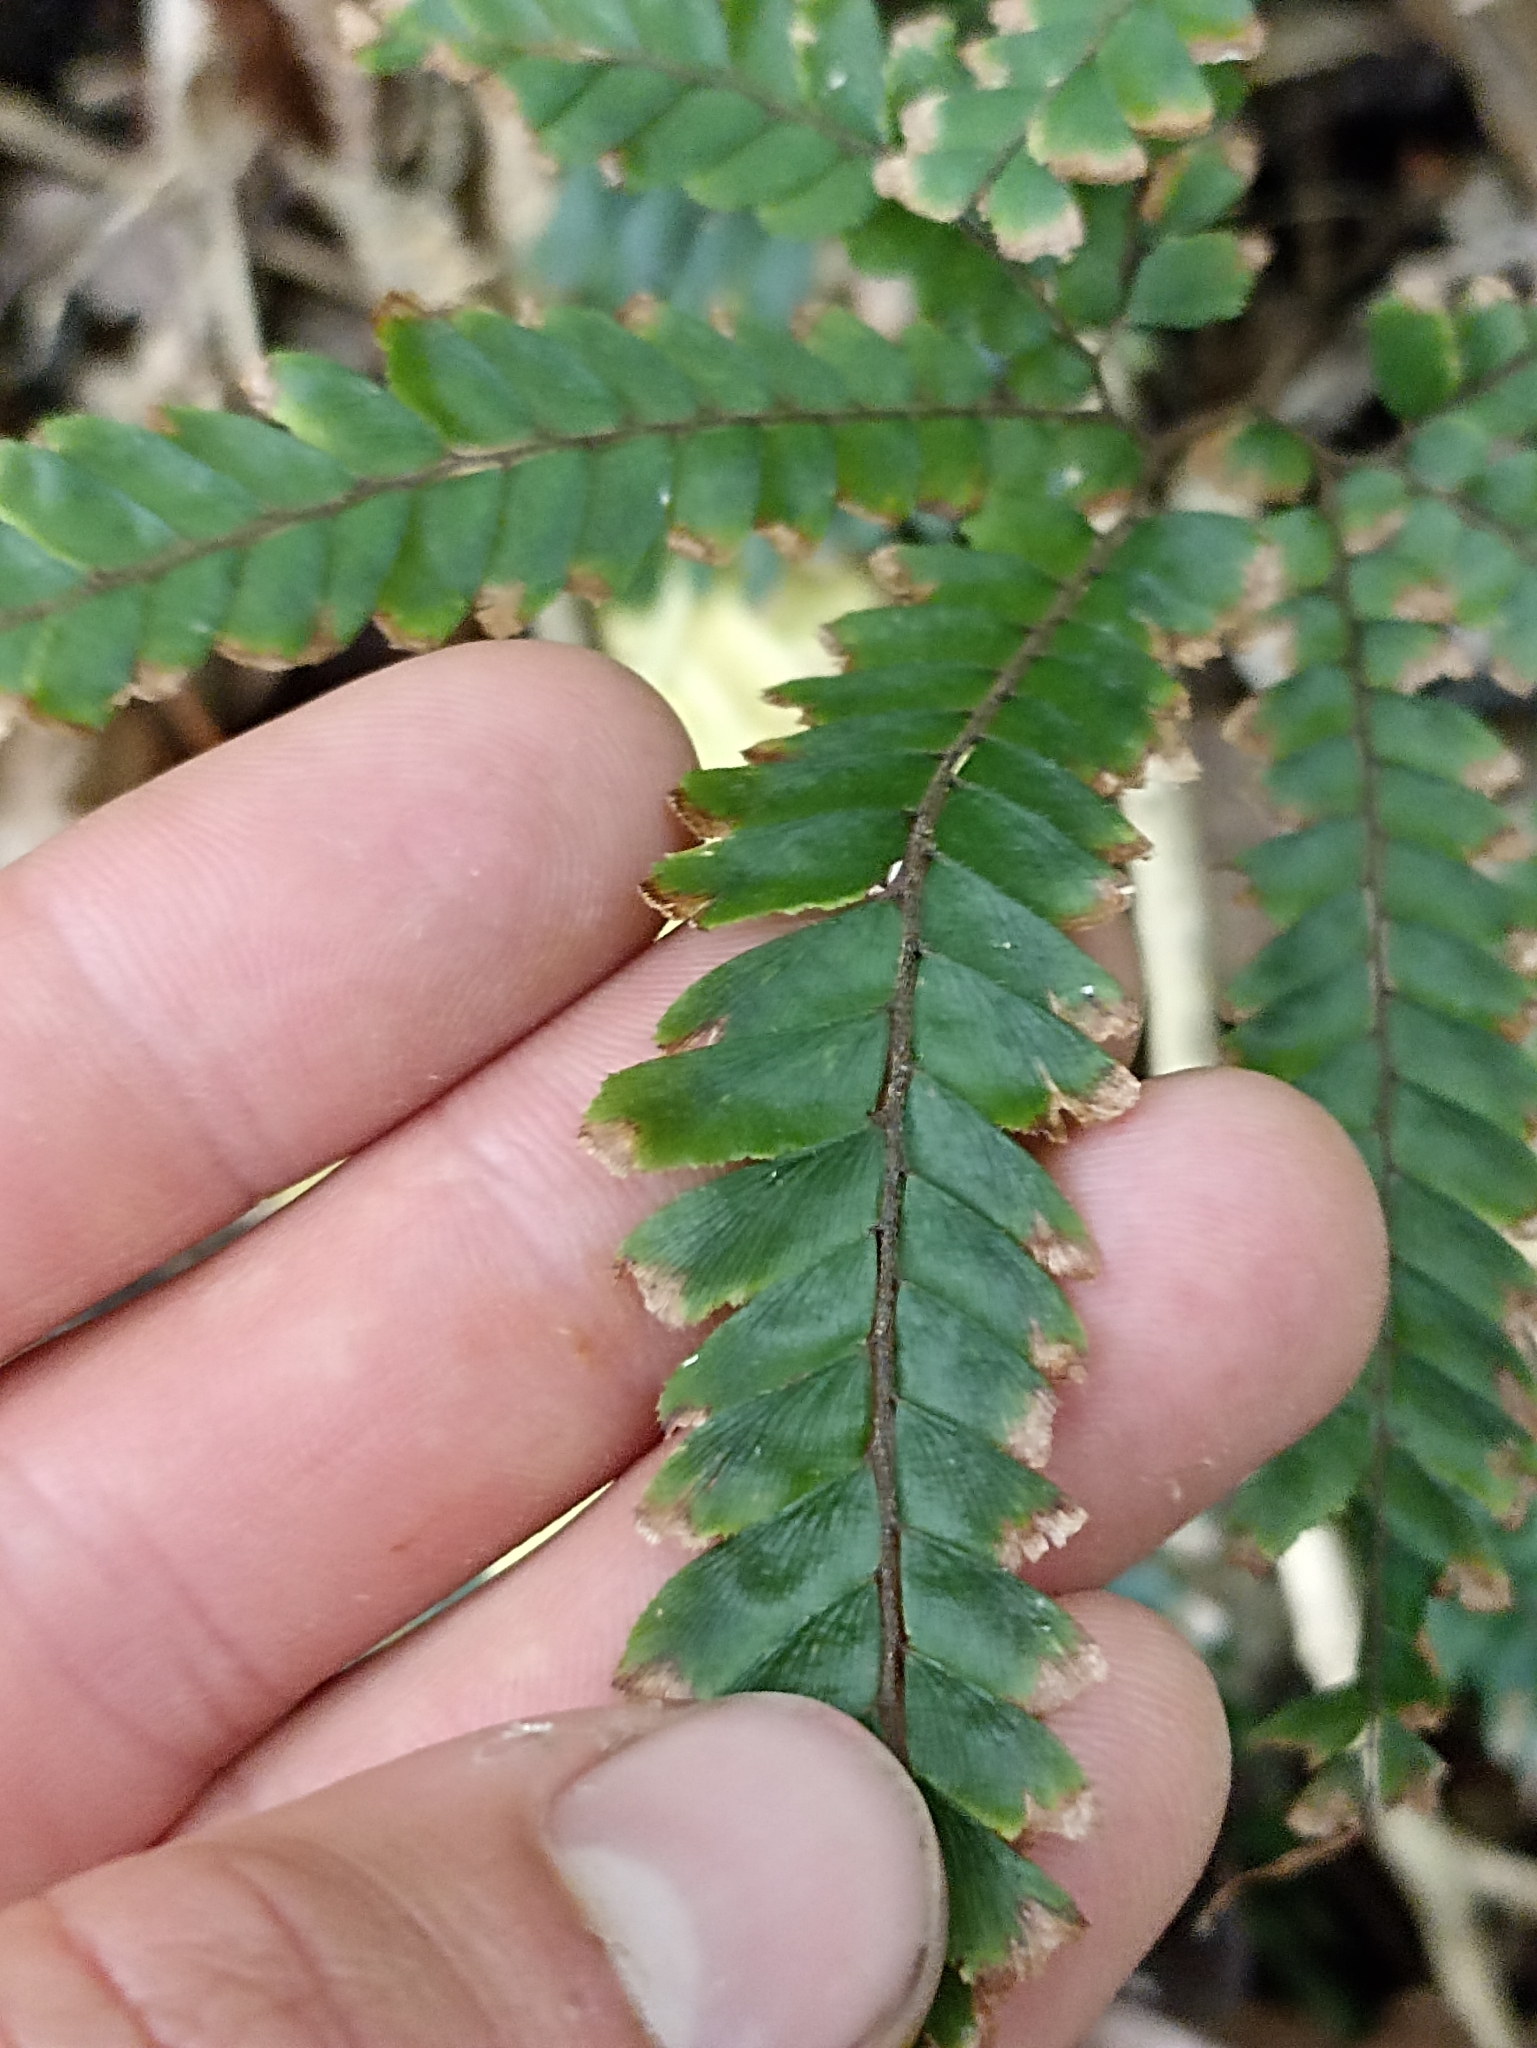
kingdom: Plantae
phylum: Tracheophyta
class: Polypodiopsida
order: Polypodiales
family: Pteridaceae
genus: Adiantum
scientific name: Adiantum hispidulum
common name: Rough maidenhair
